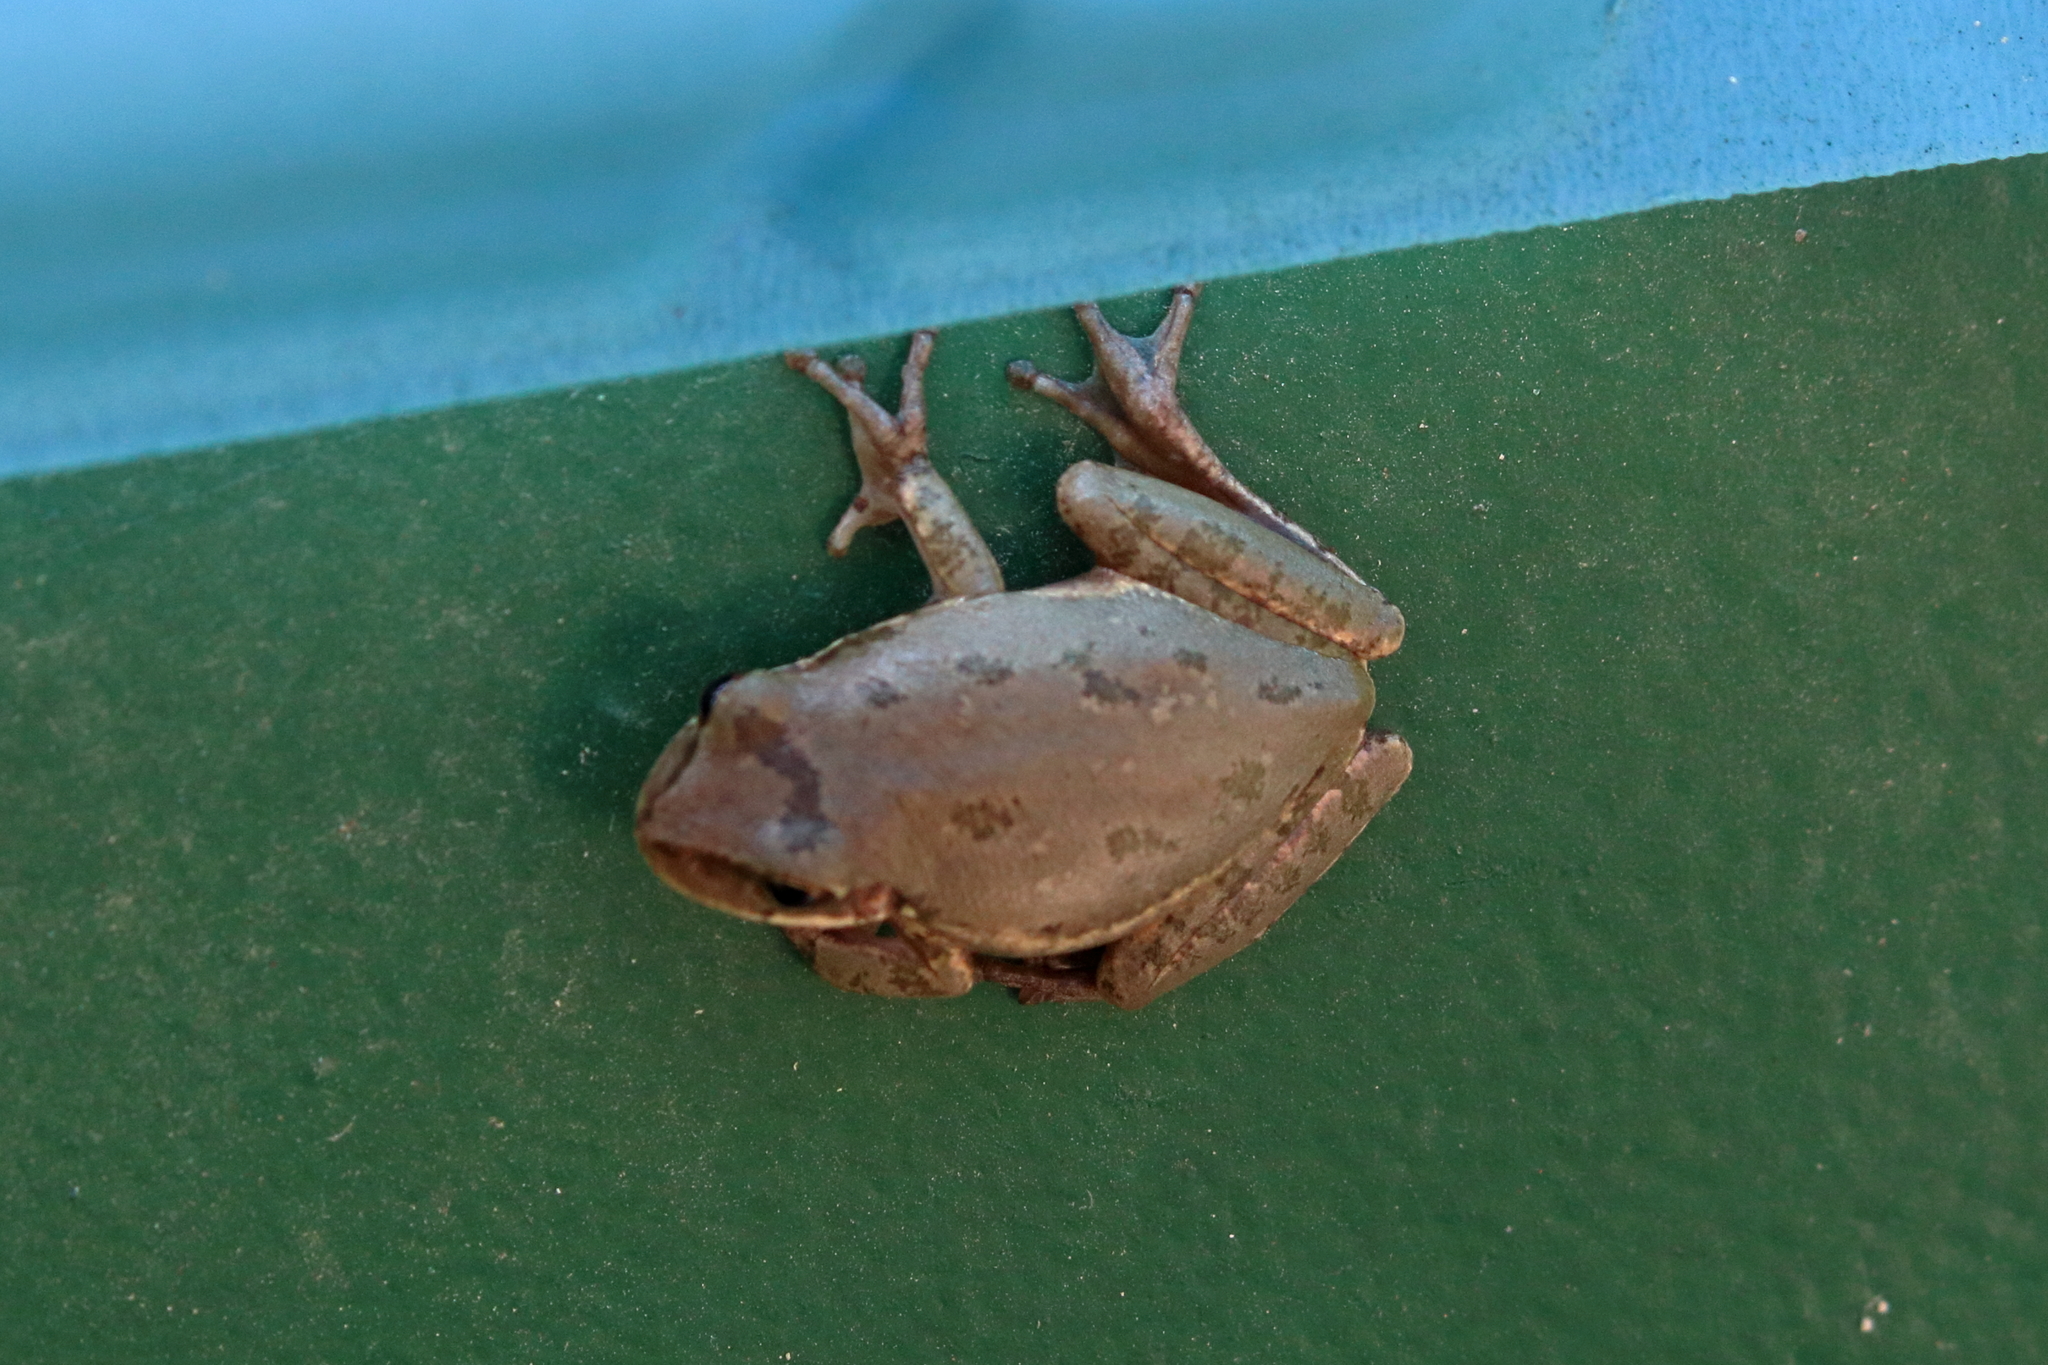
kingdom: Animalia
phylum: Chordata
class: Amphibia
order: Anura
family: Hylidae
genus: Dryophytes
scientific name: Dryophytes squirellus
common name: Squirrel treefrog
